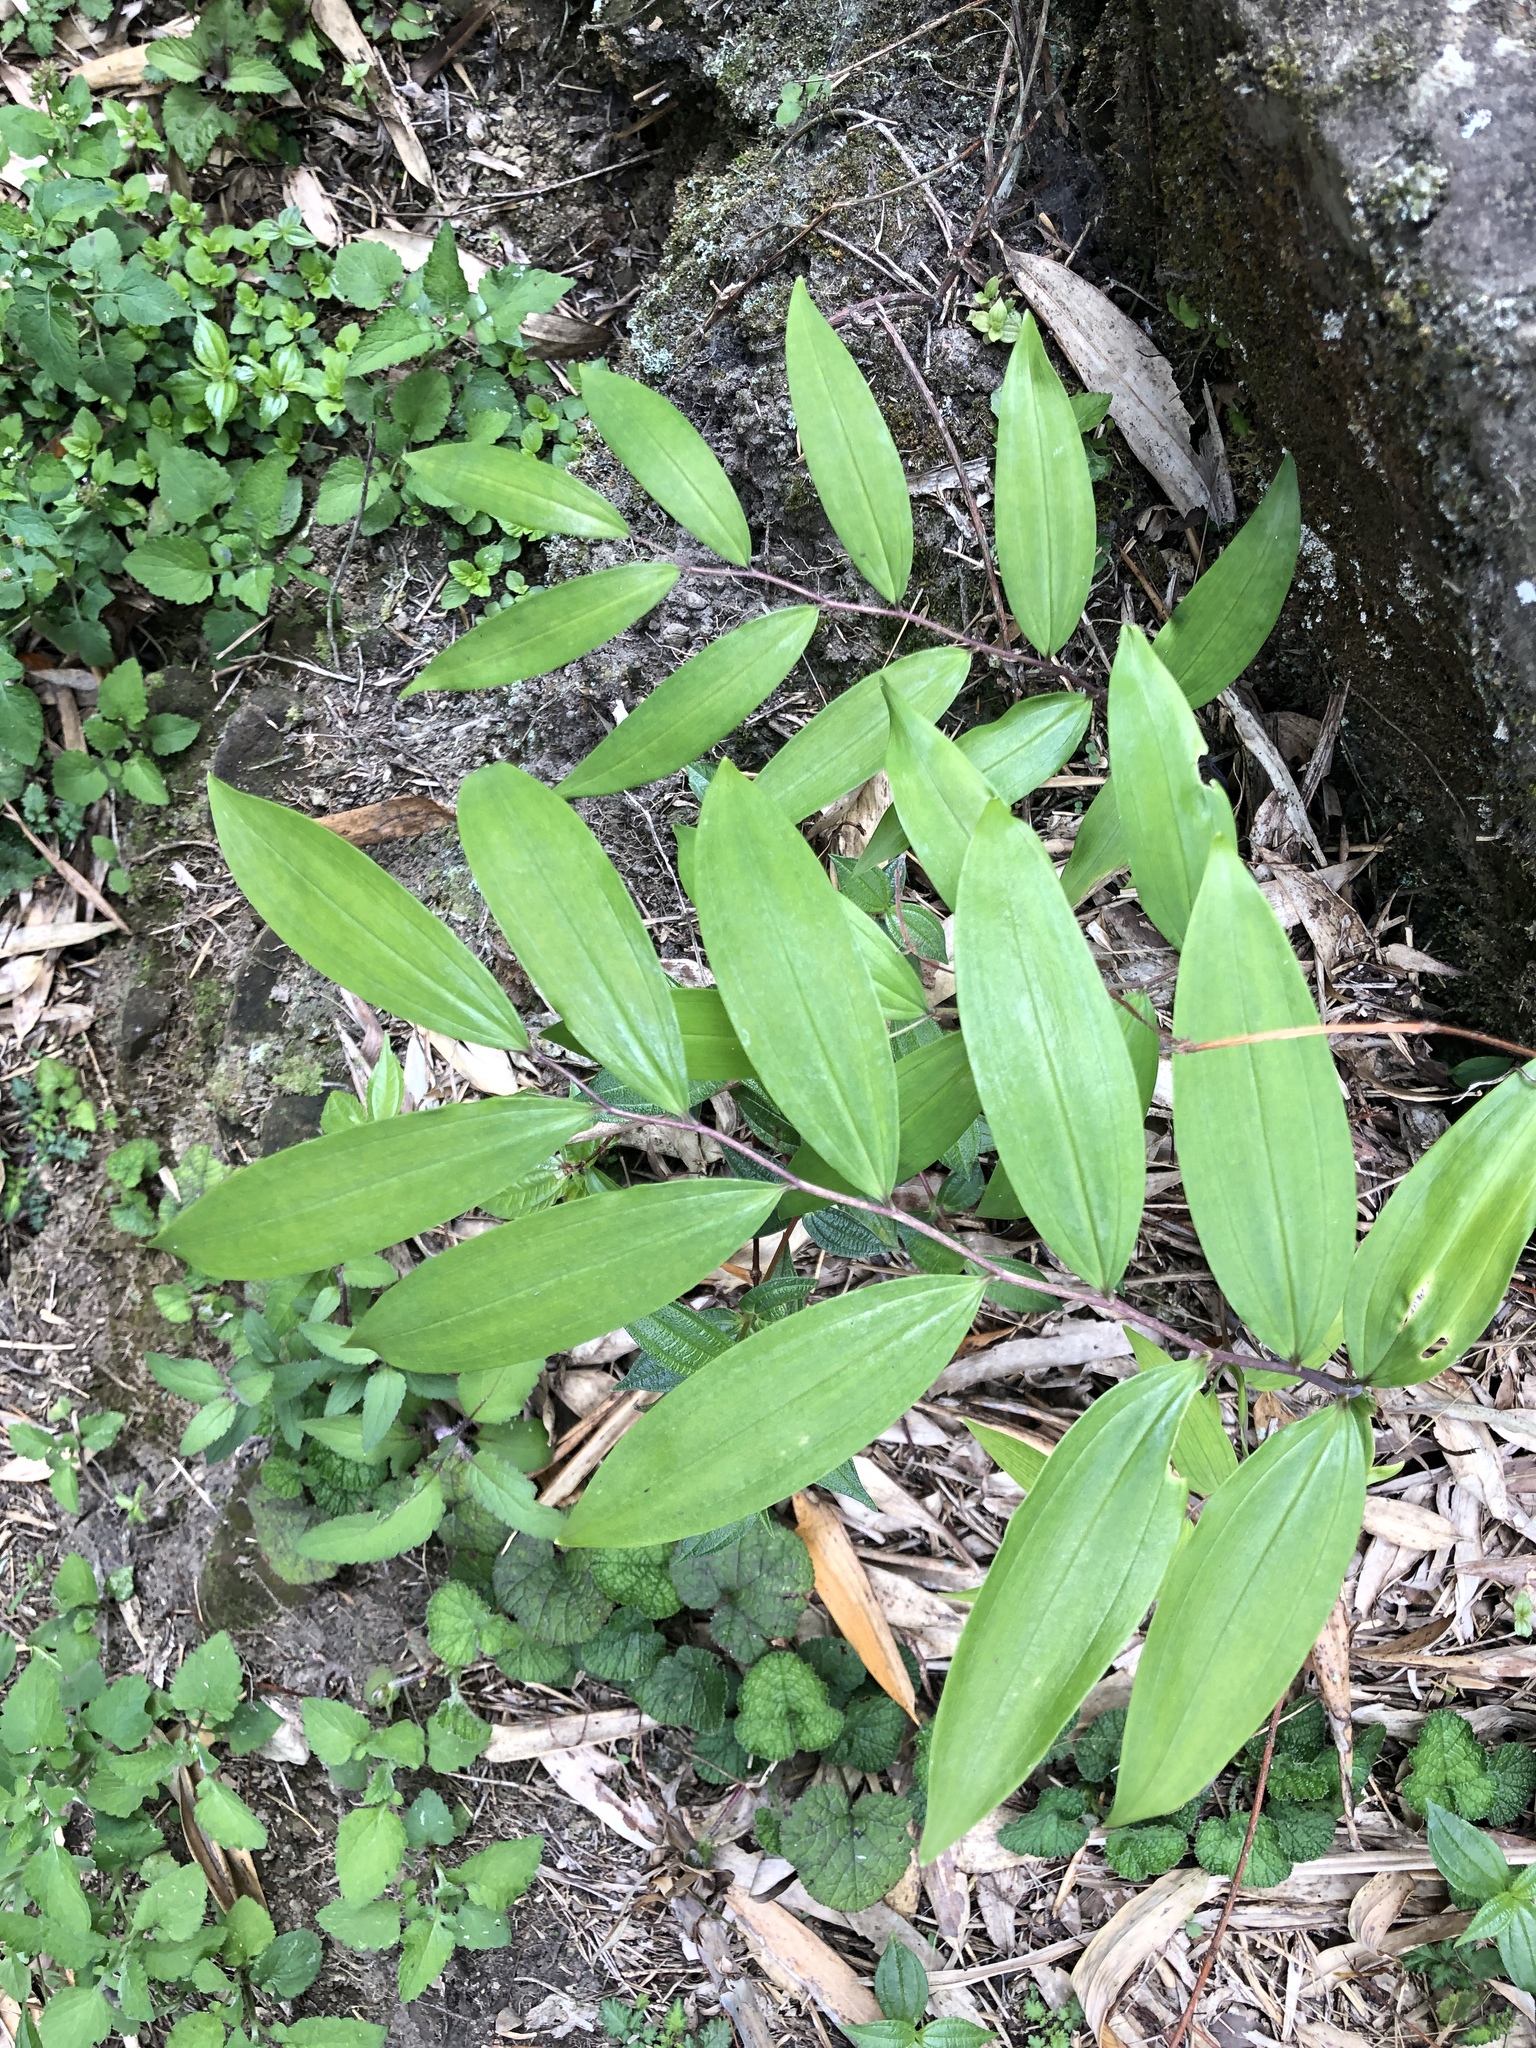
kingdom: Plantae
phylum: Tracheophyta
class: Liliopsida
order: Asparagales
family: Asparagaceae
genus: Polygonatum
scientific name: Polygonatum arisanense
